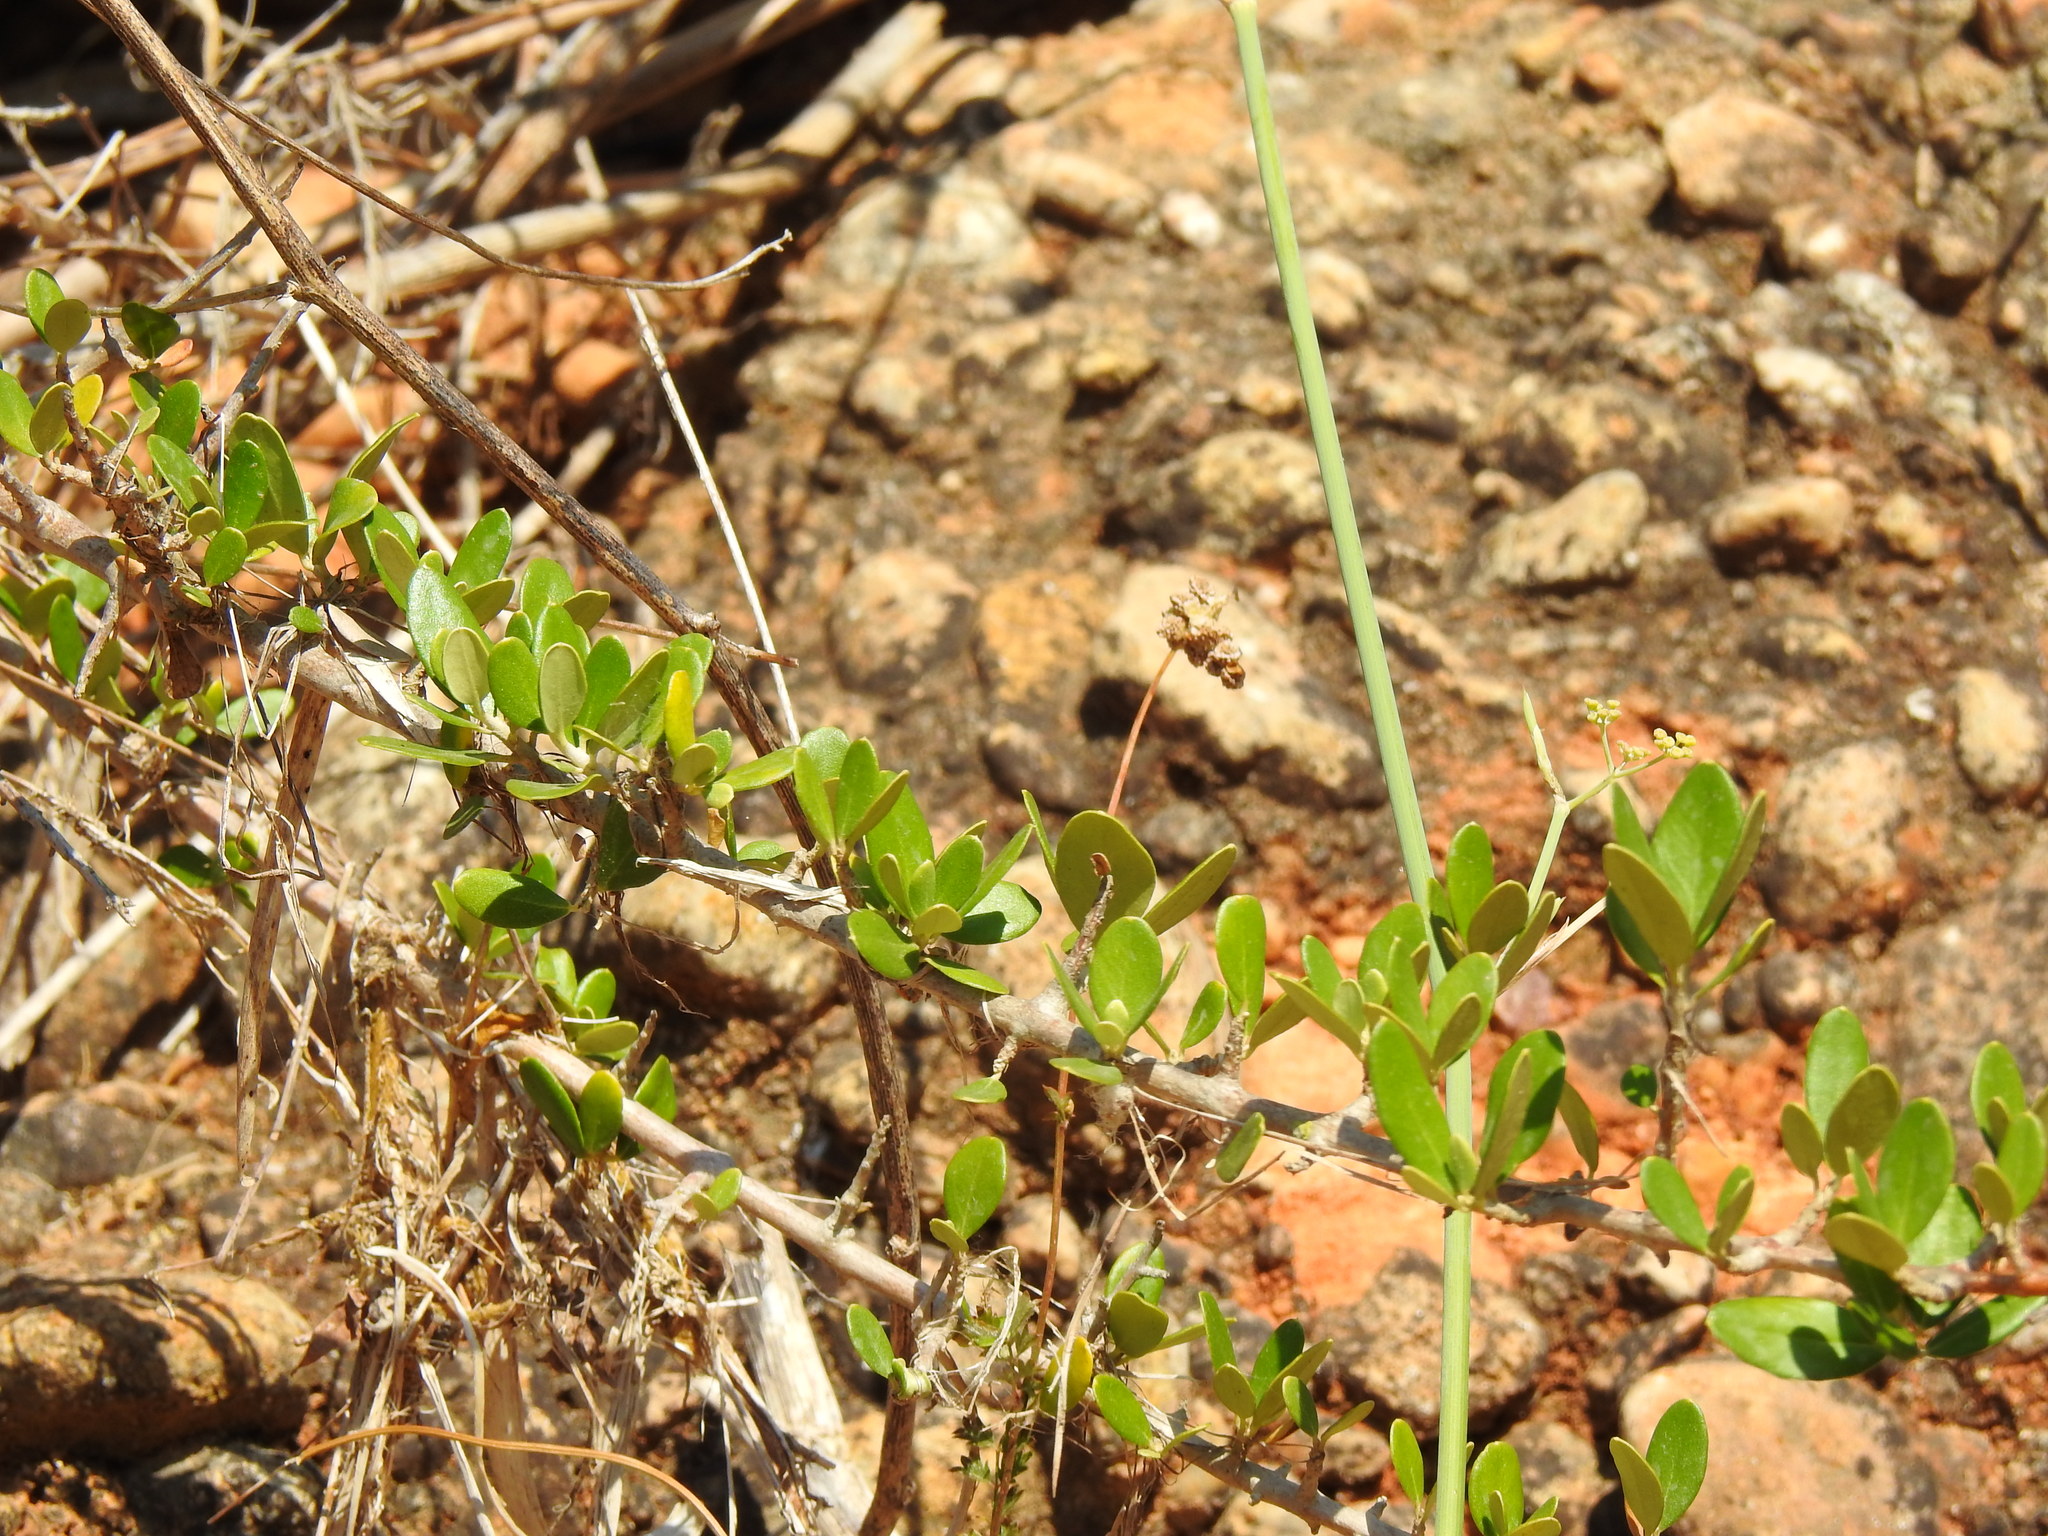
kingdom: Plantae
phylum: Tracheophyta
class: Magnoliopsida
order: Lamiales
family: Oleaceae
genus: Olea
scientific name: Olea europaea
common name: Olive
